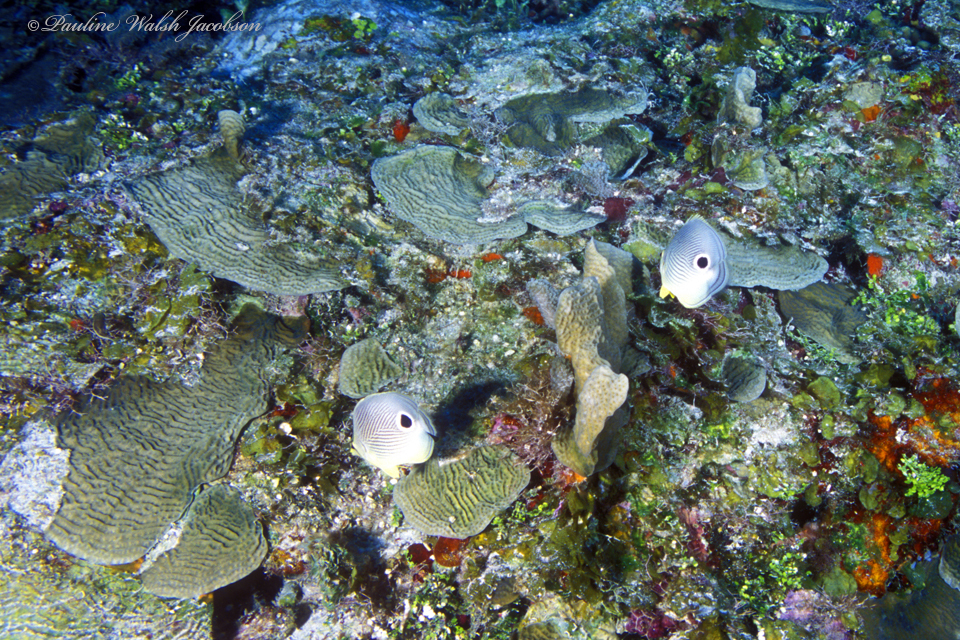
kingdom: Animalia
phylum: Chordata
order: Perciformes
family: Chaetodontidae
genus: Chaetodon
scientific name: Chaetodon capistratus
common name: Kete
